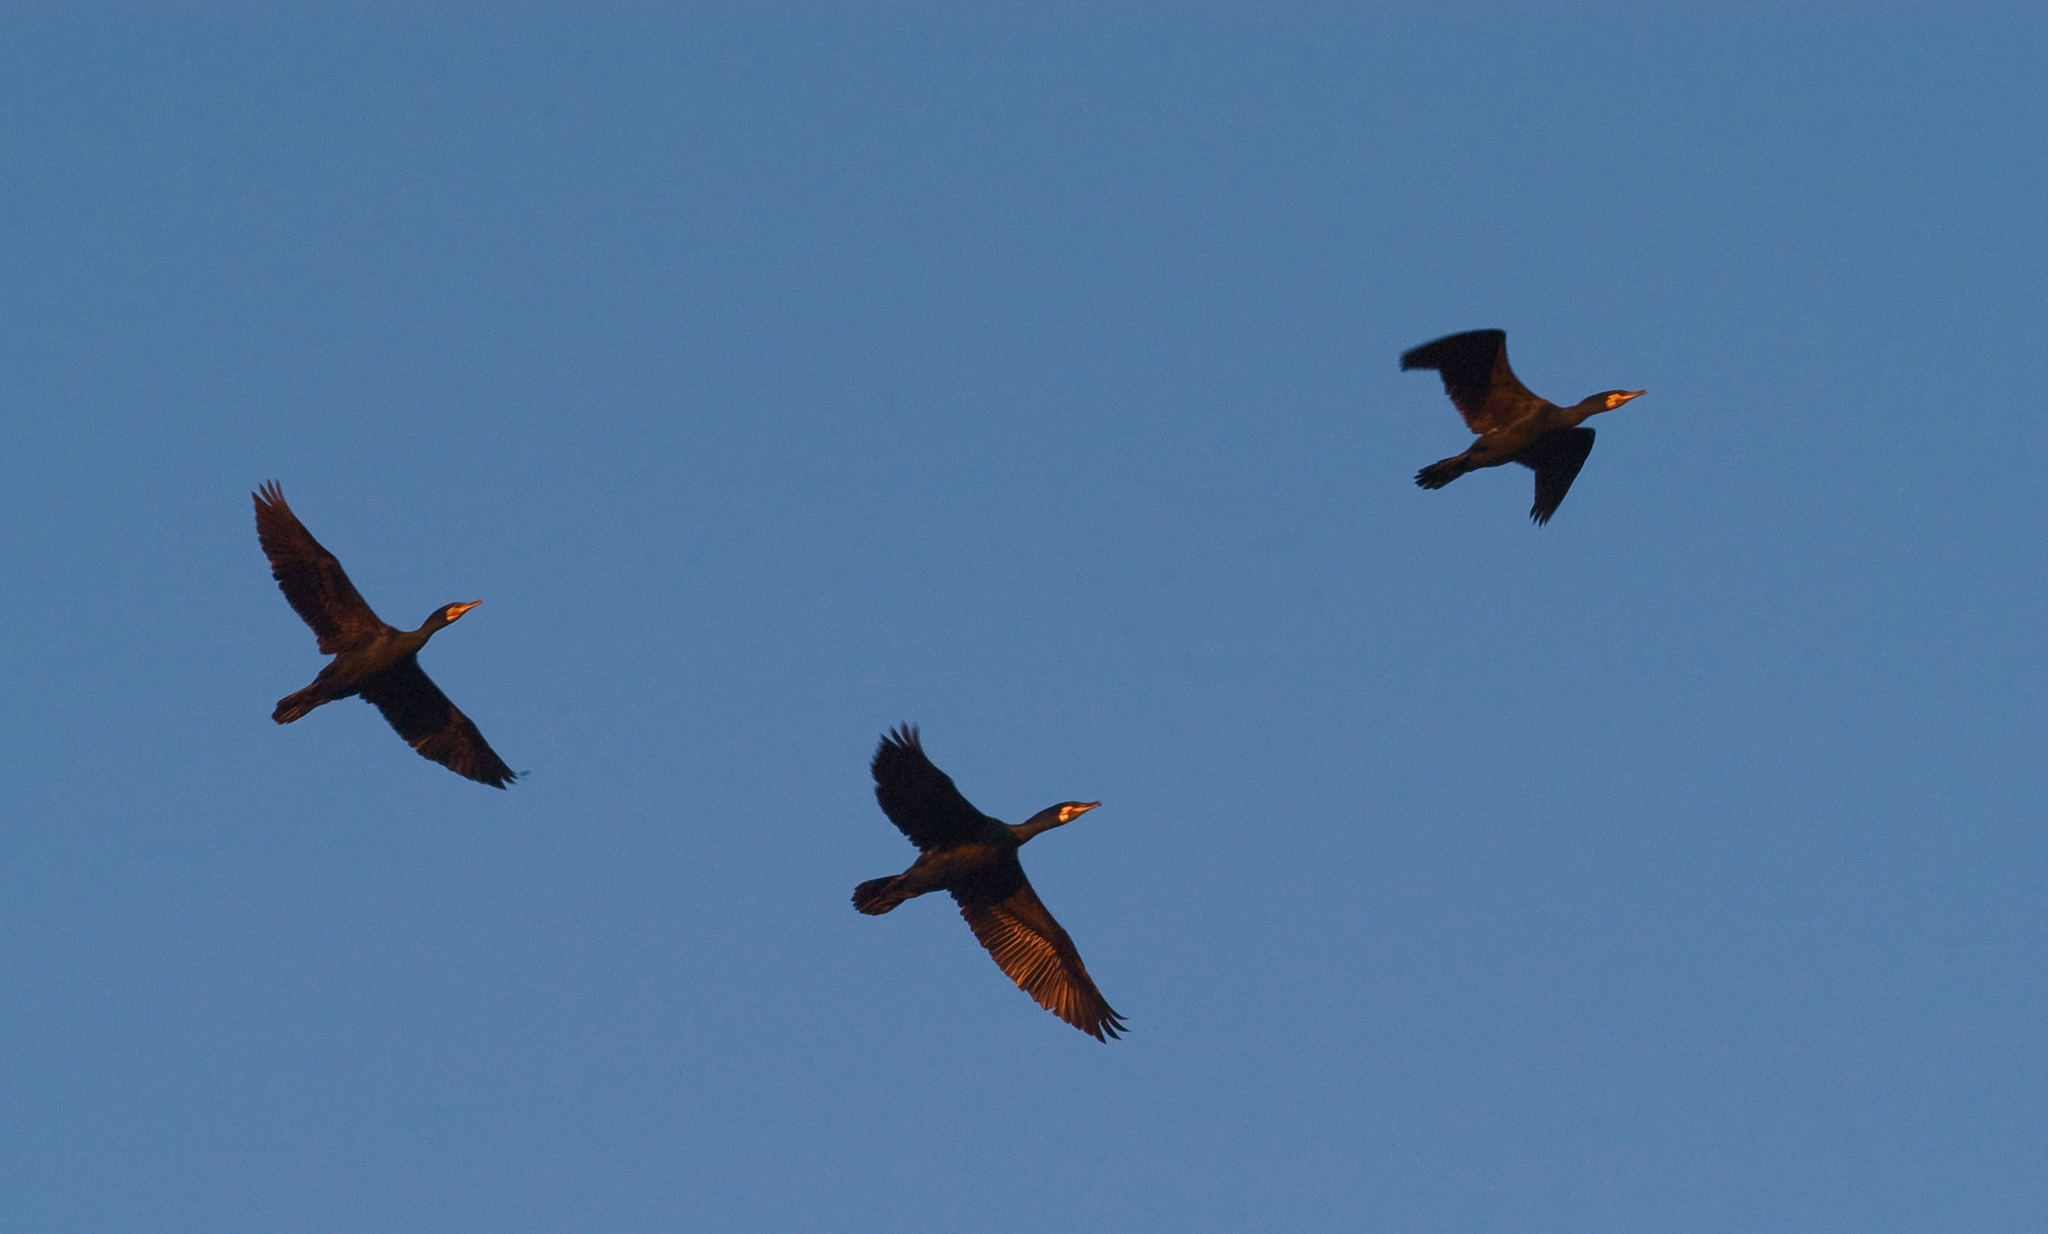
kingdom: Animalia
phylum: Chordata
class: Aves
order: Suliformes
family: Phalacrocoracidae
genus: Phalacrocorax
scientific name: Phalacrocorax carbo
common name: Great cormorant
